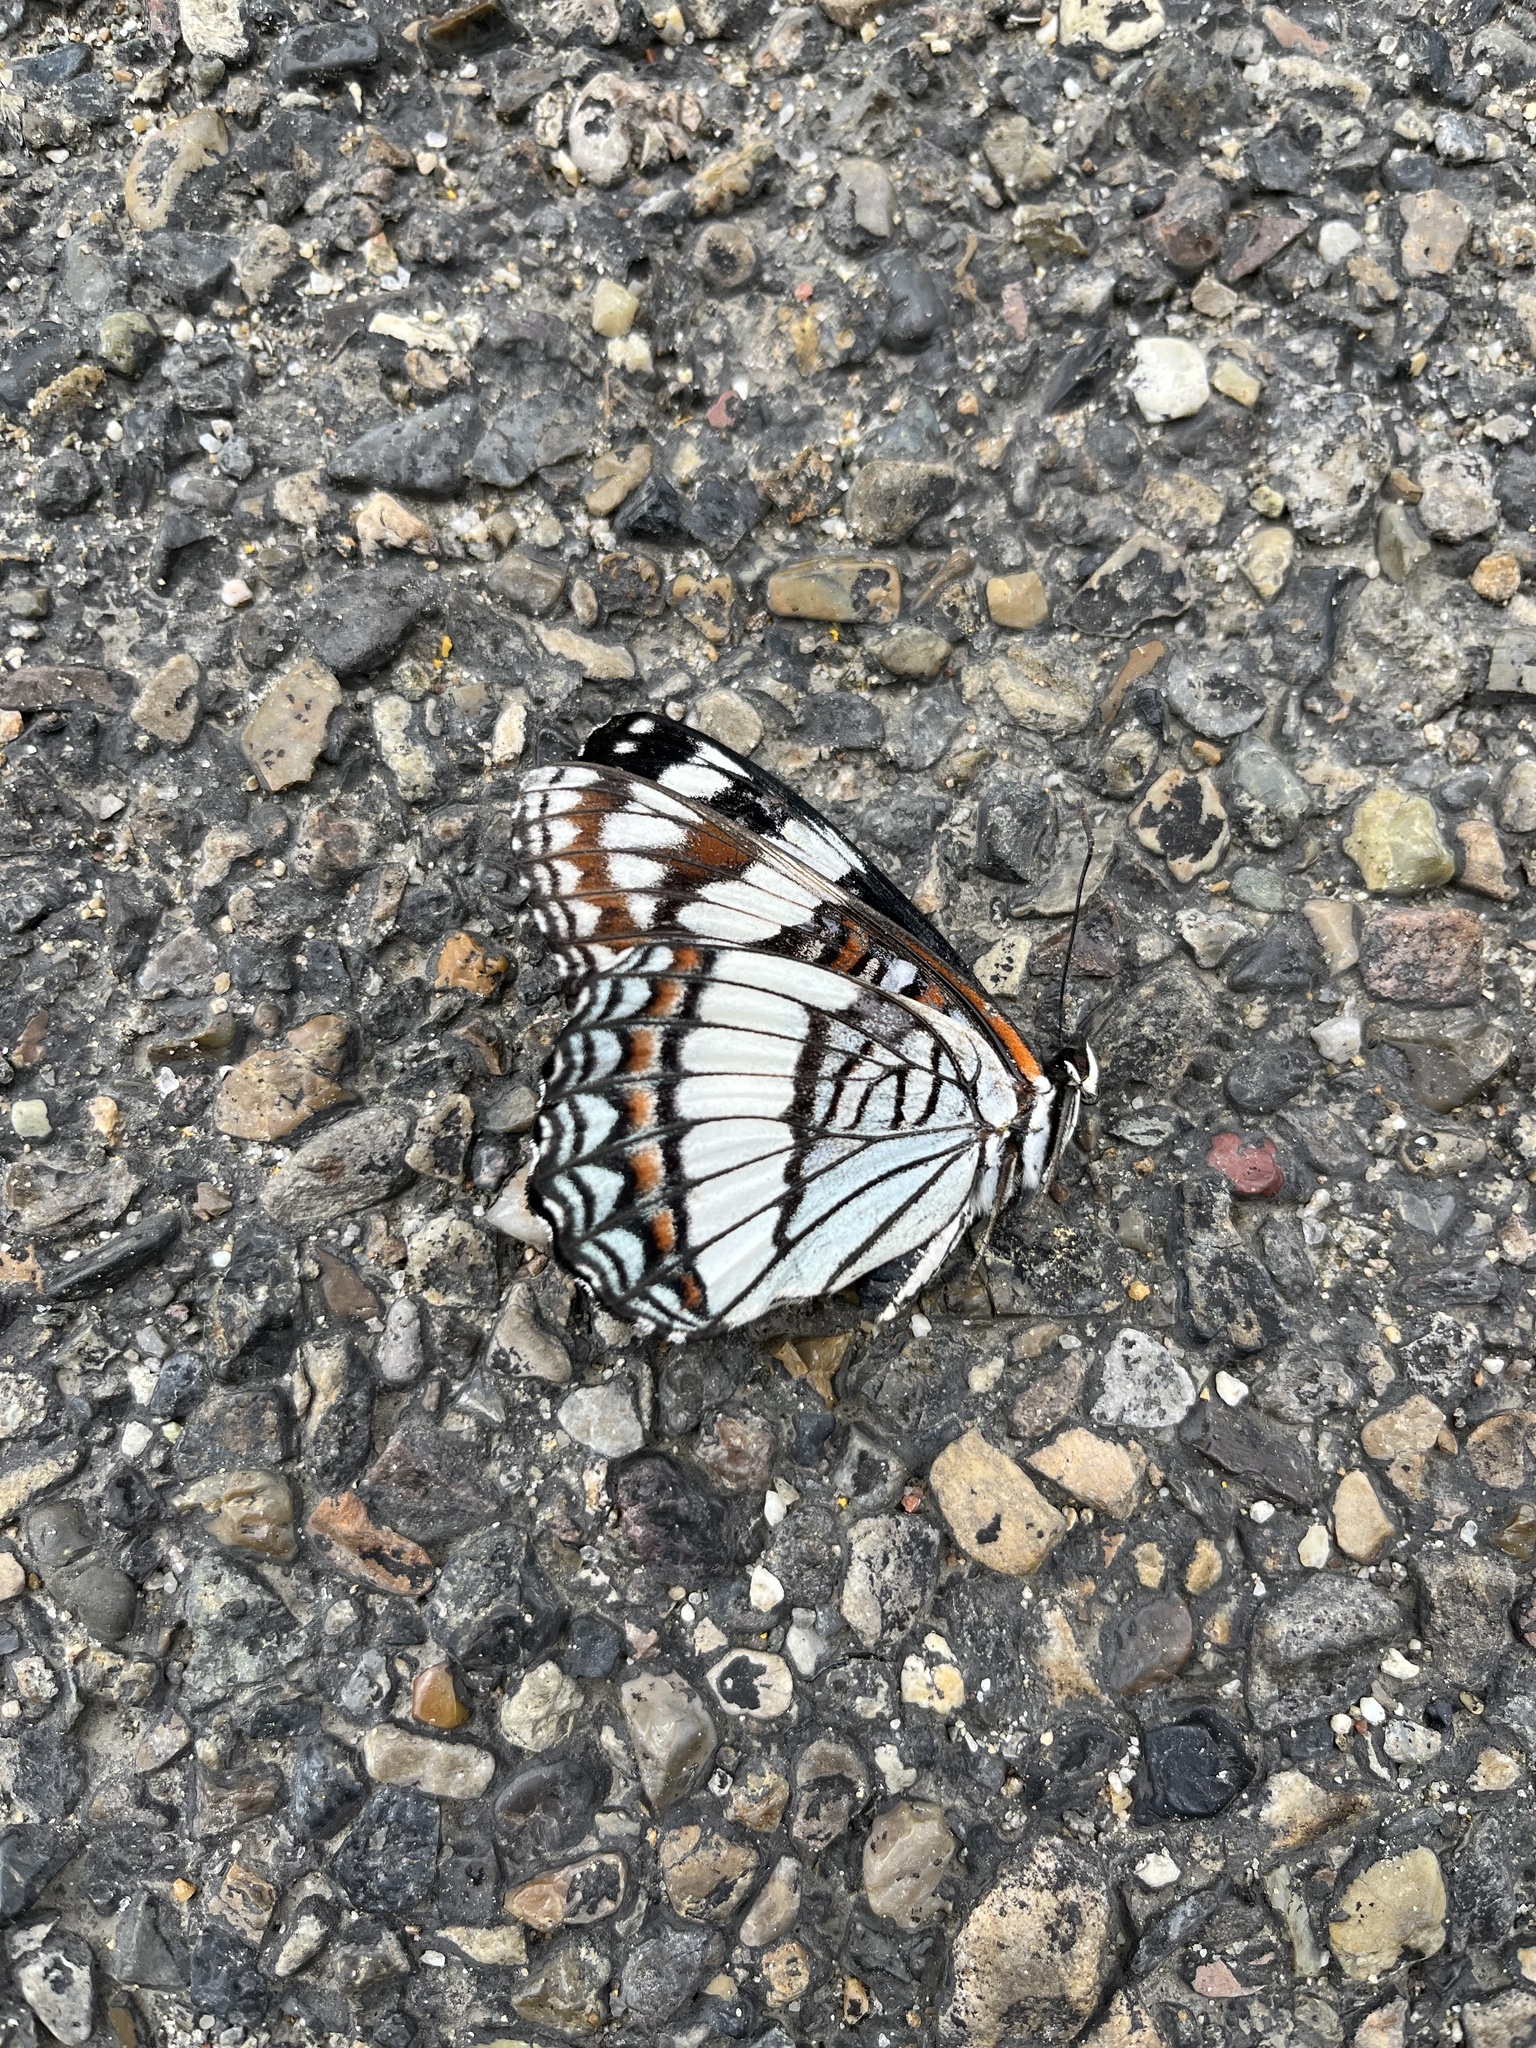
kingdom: Animalia
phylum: Arthropoda
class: Insecta
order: Lepidoptera
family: Nymphalidae
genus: Limenitis
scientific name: Limenitis weidemeyerii
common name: Weidemeyer's admiral
